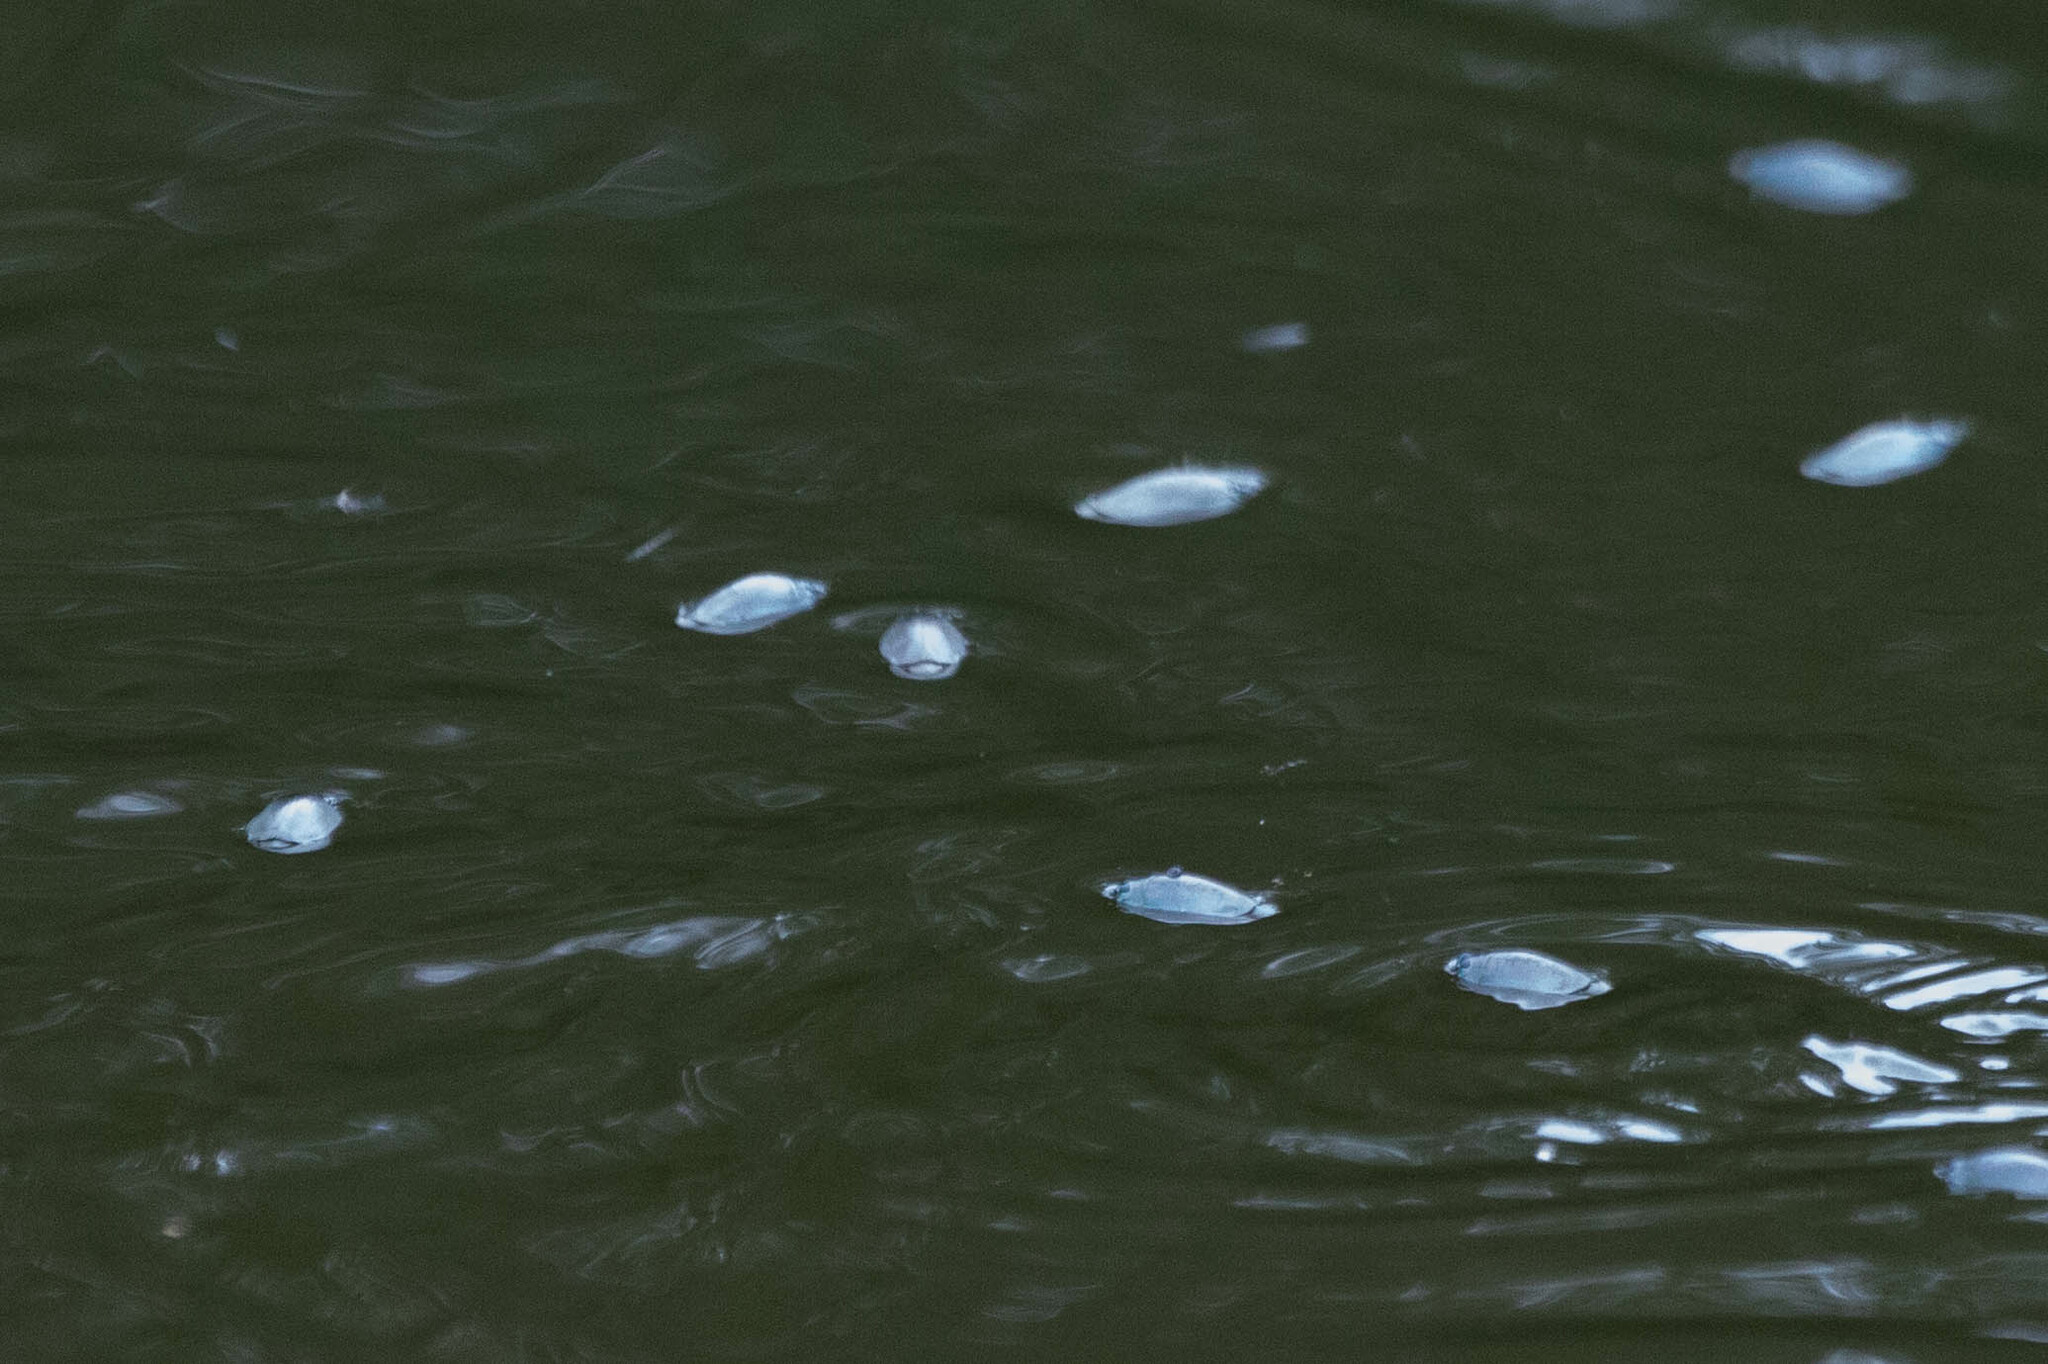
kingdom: Animalia
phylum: Arthropoda
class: Insecta
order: Coleoptera
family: Gyrinidae
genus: Dineutus
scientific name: Dineutus
